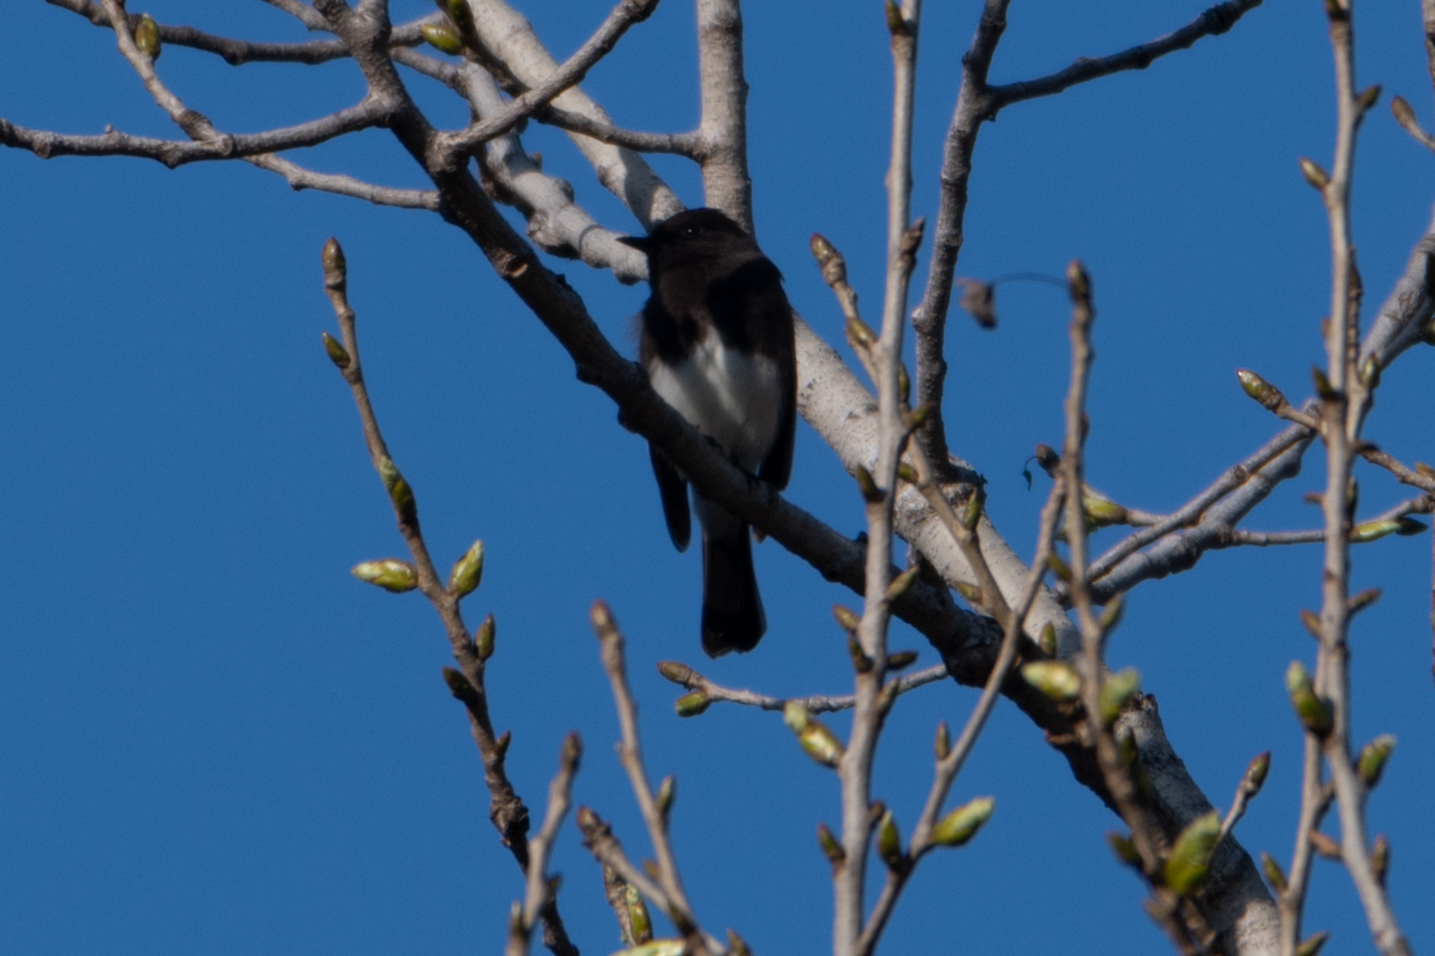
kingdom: Animalia
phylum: Chordata
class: Aves
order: Passeriformes
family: Tyrannidae
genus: Sayornis
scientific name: Sayornis nigricans
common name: Black phoebe
